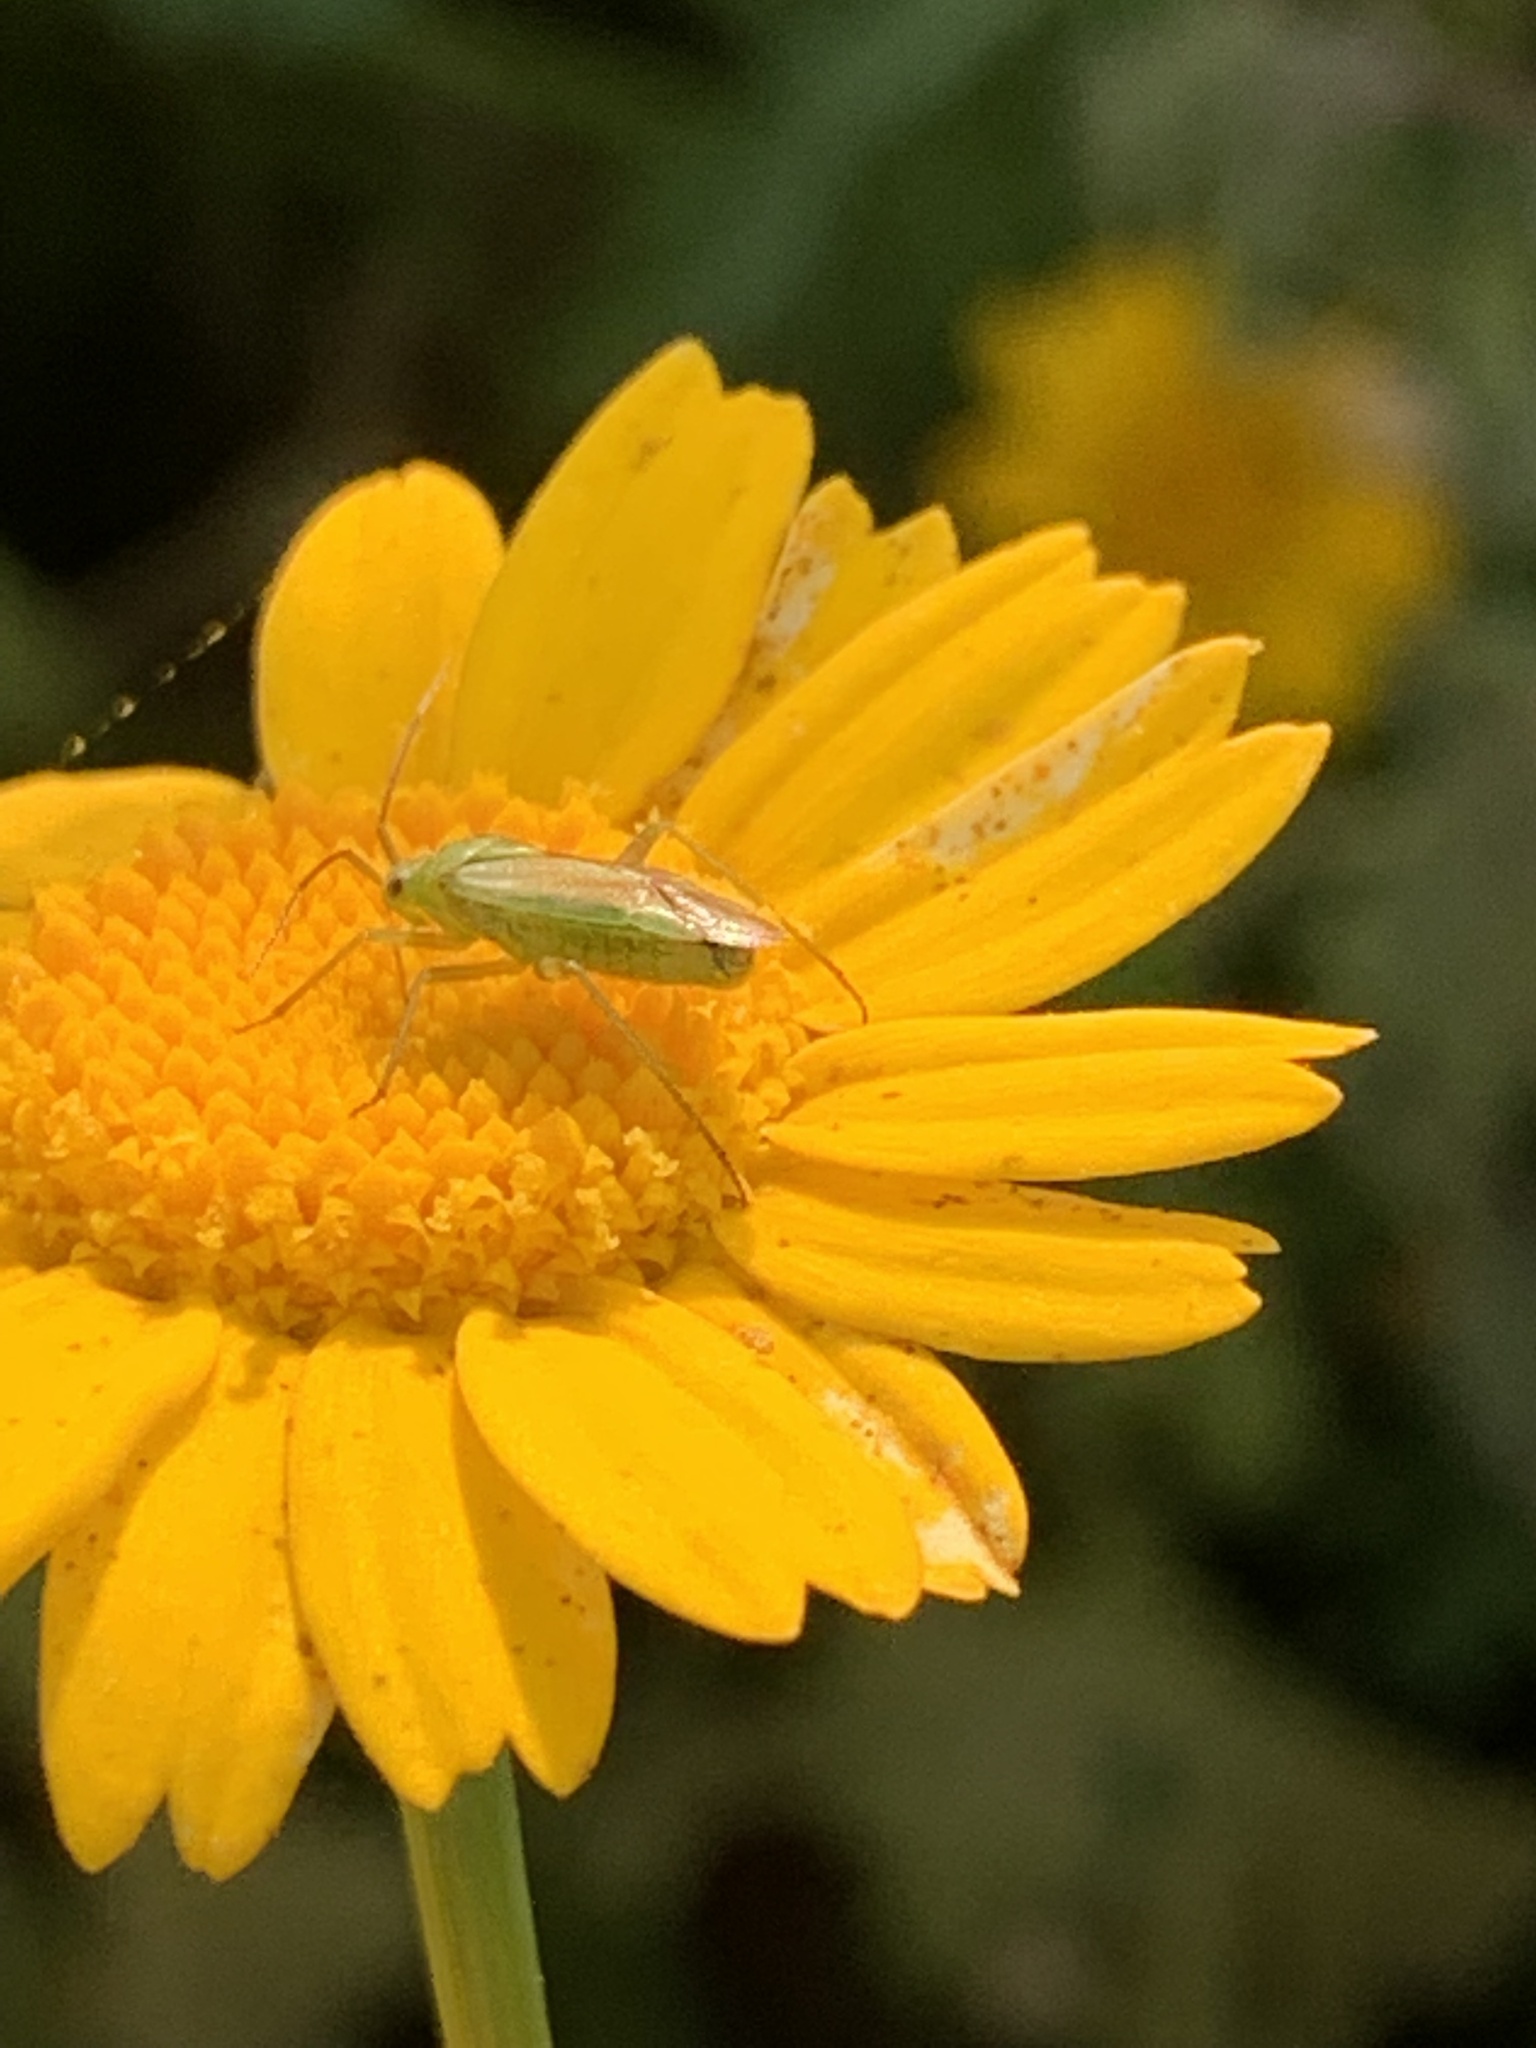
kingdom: Animalia
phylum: Arthropoda
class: Insecta
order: Hemiptera
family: Miridae
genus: Closterotomus
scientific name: Closterotomus norvegicus
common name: Plant bug
